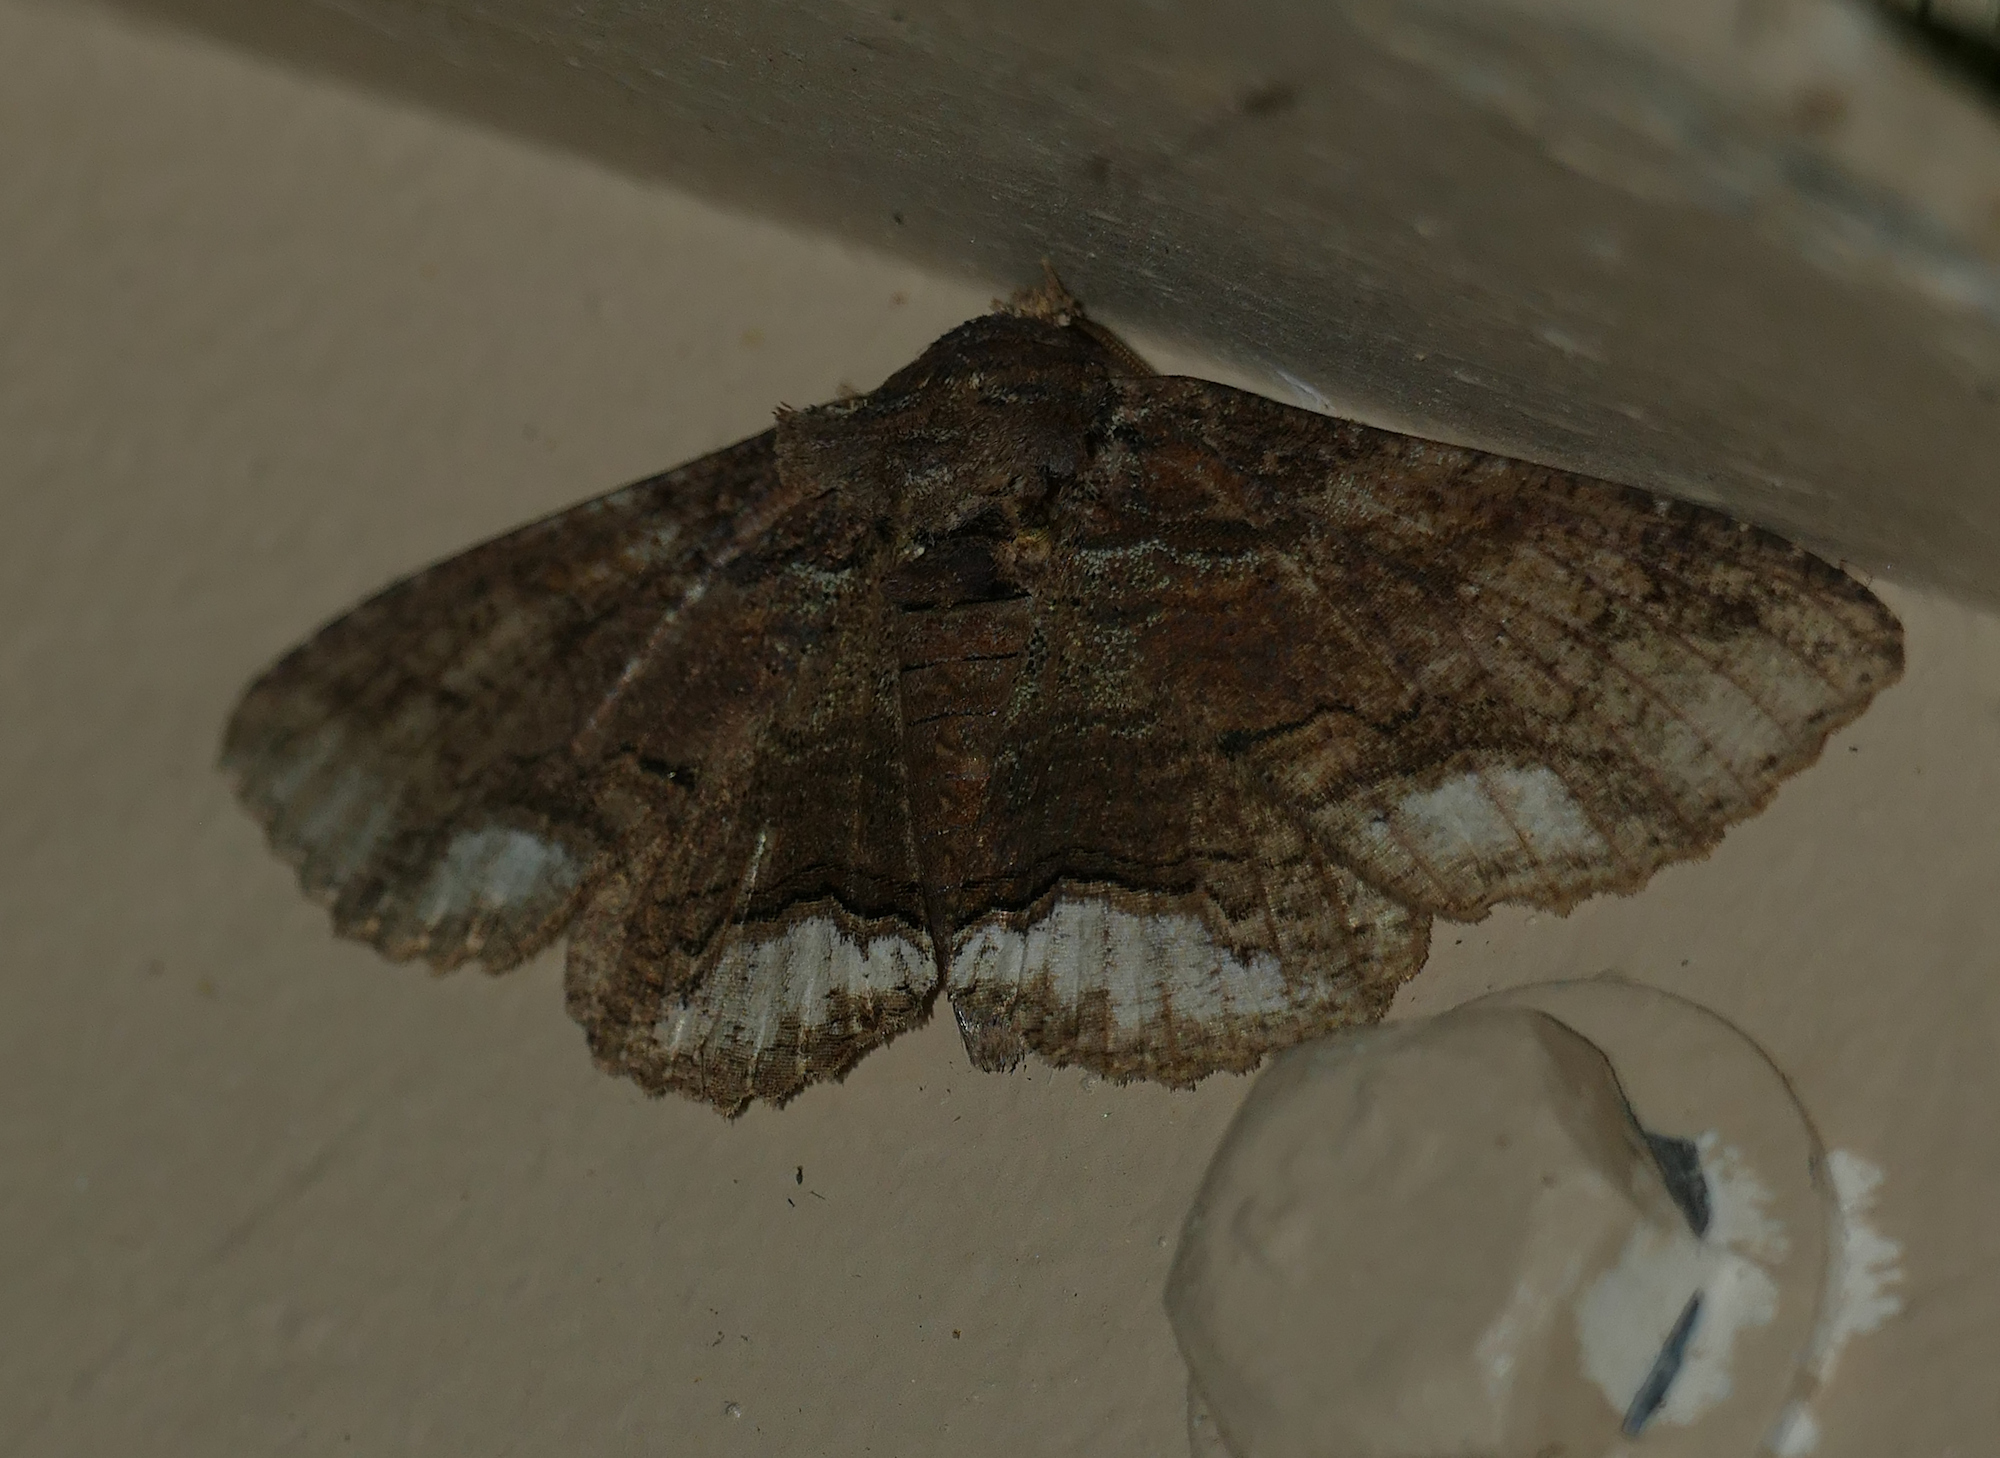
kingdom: Animalia
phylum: Arthropoda
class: Insecta
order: Lepidoptera
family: Erebidae
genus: Zale
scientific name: Zale lunata
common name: Lunate zale moth
